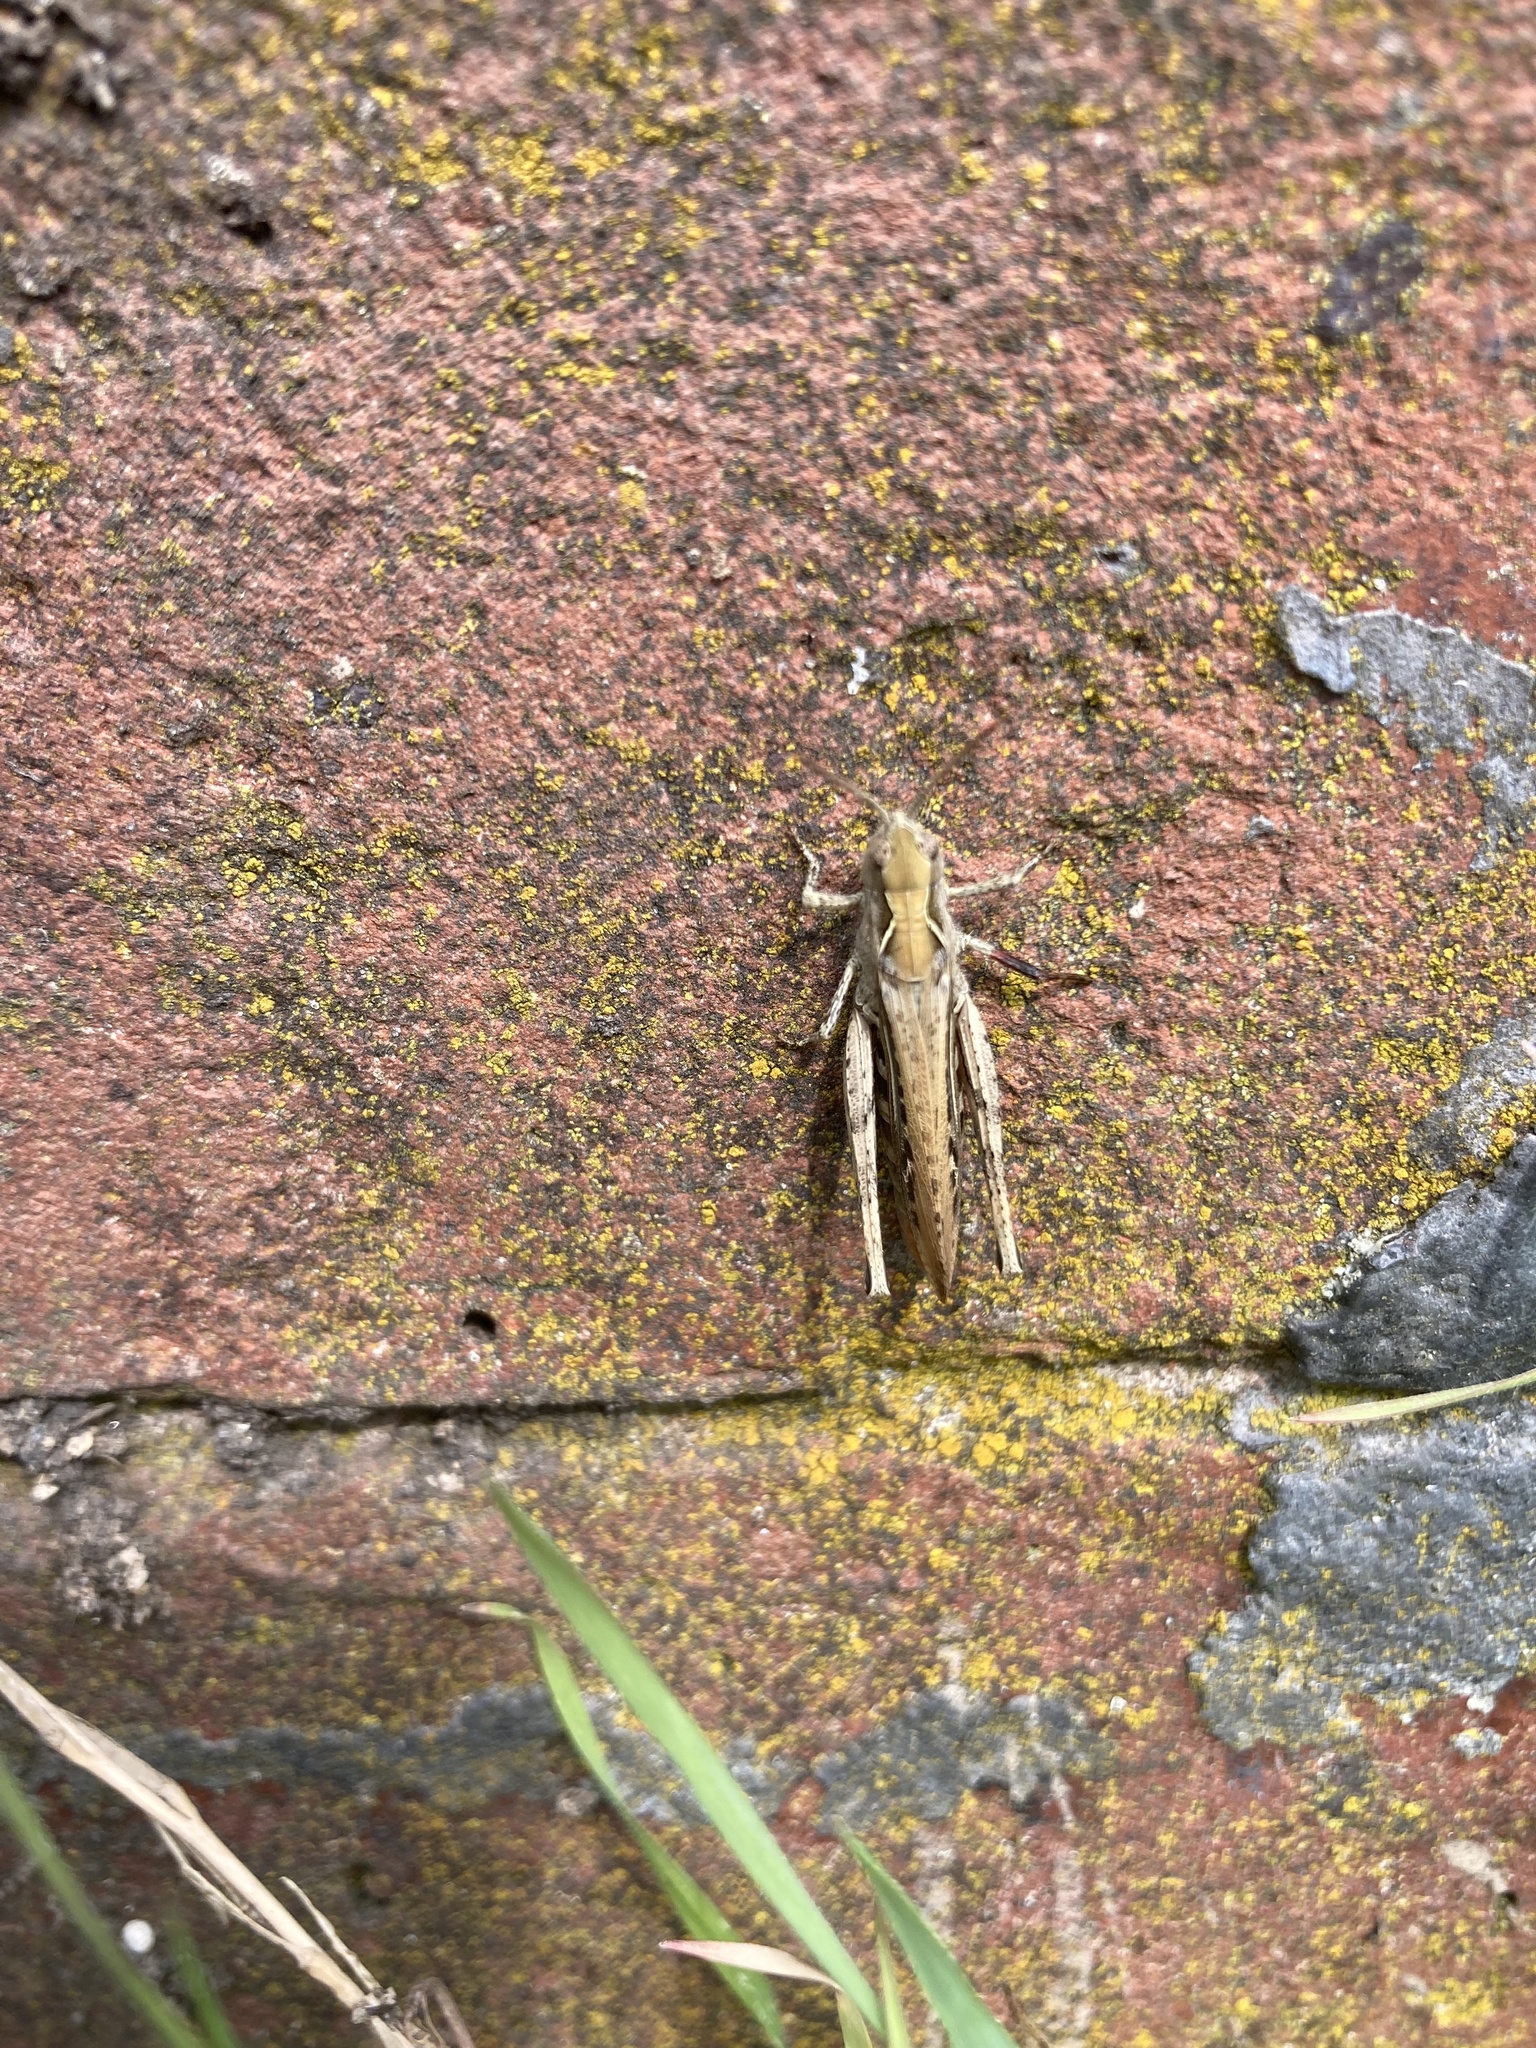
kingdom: Animalia
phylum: Arthropoda
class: Insecta
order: Orthoptera
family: Acrididae
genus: Chorthippus
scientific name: Chorthippus brunneus
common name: Field grasshopper
